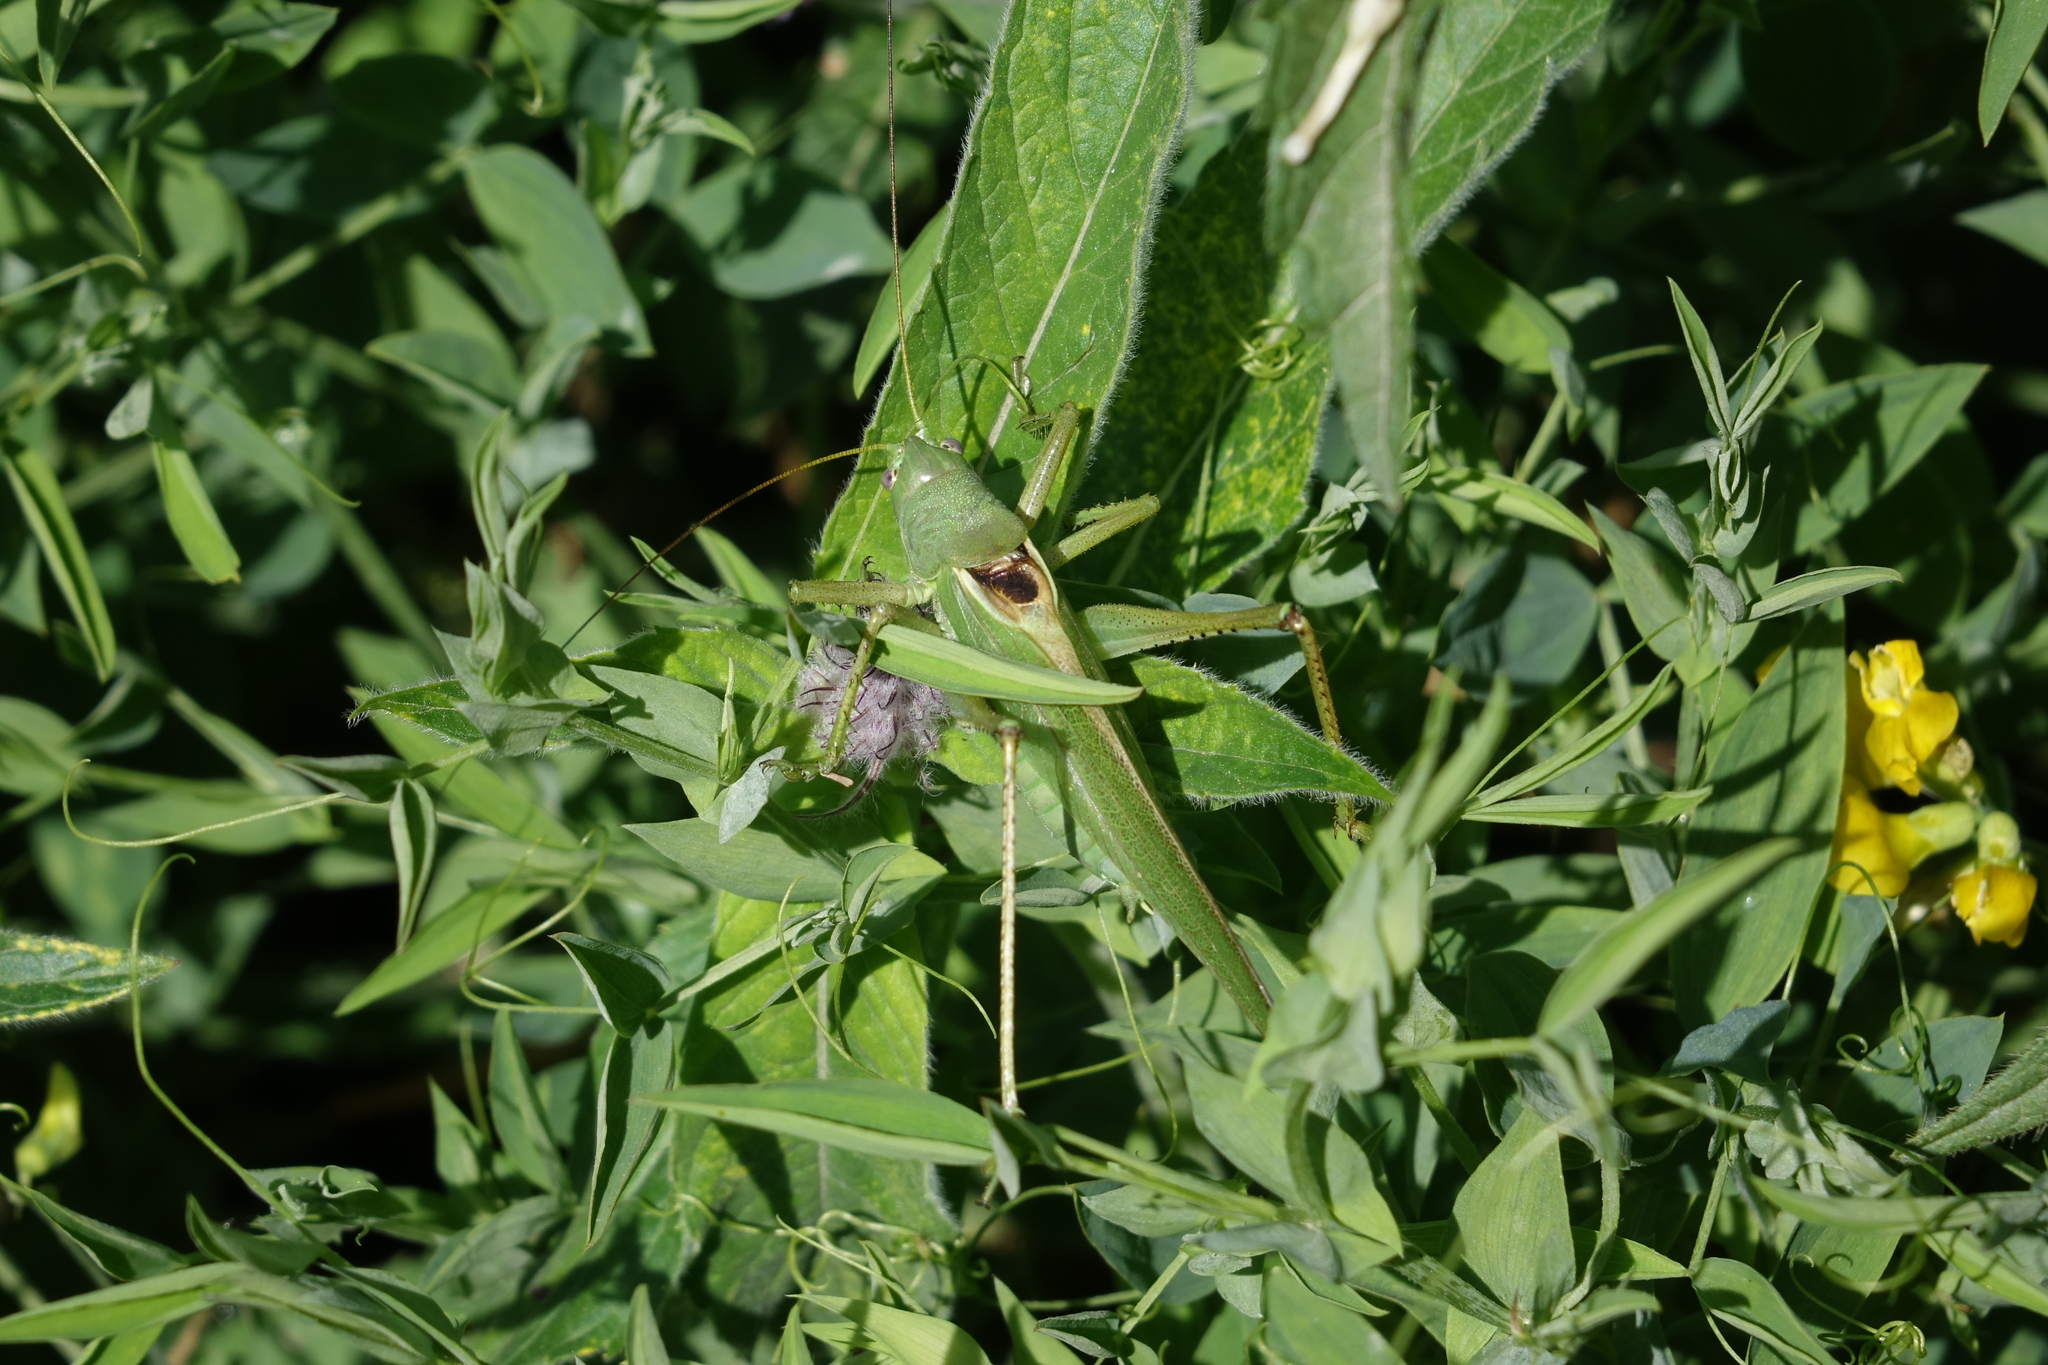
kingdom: Plantae
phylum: Tracheophyta
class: Magnoliopsida
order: Fabales
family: Fabaceae
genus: Lathyrus
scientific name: Lathyrus pratensis
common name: Meadow vetchling
